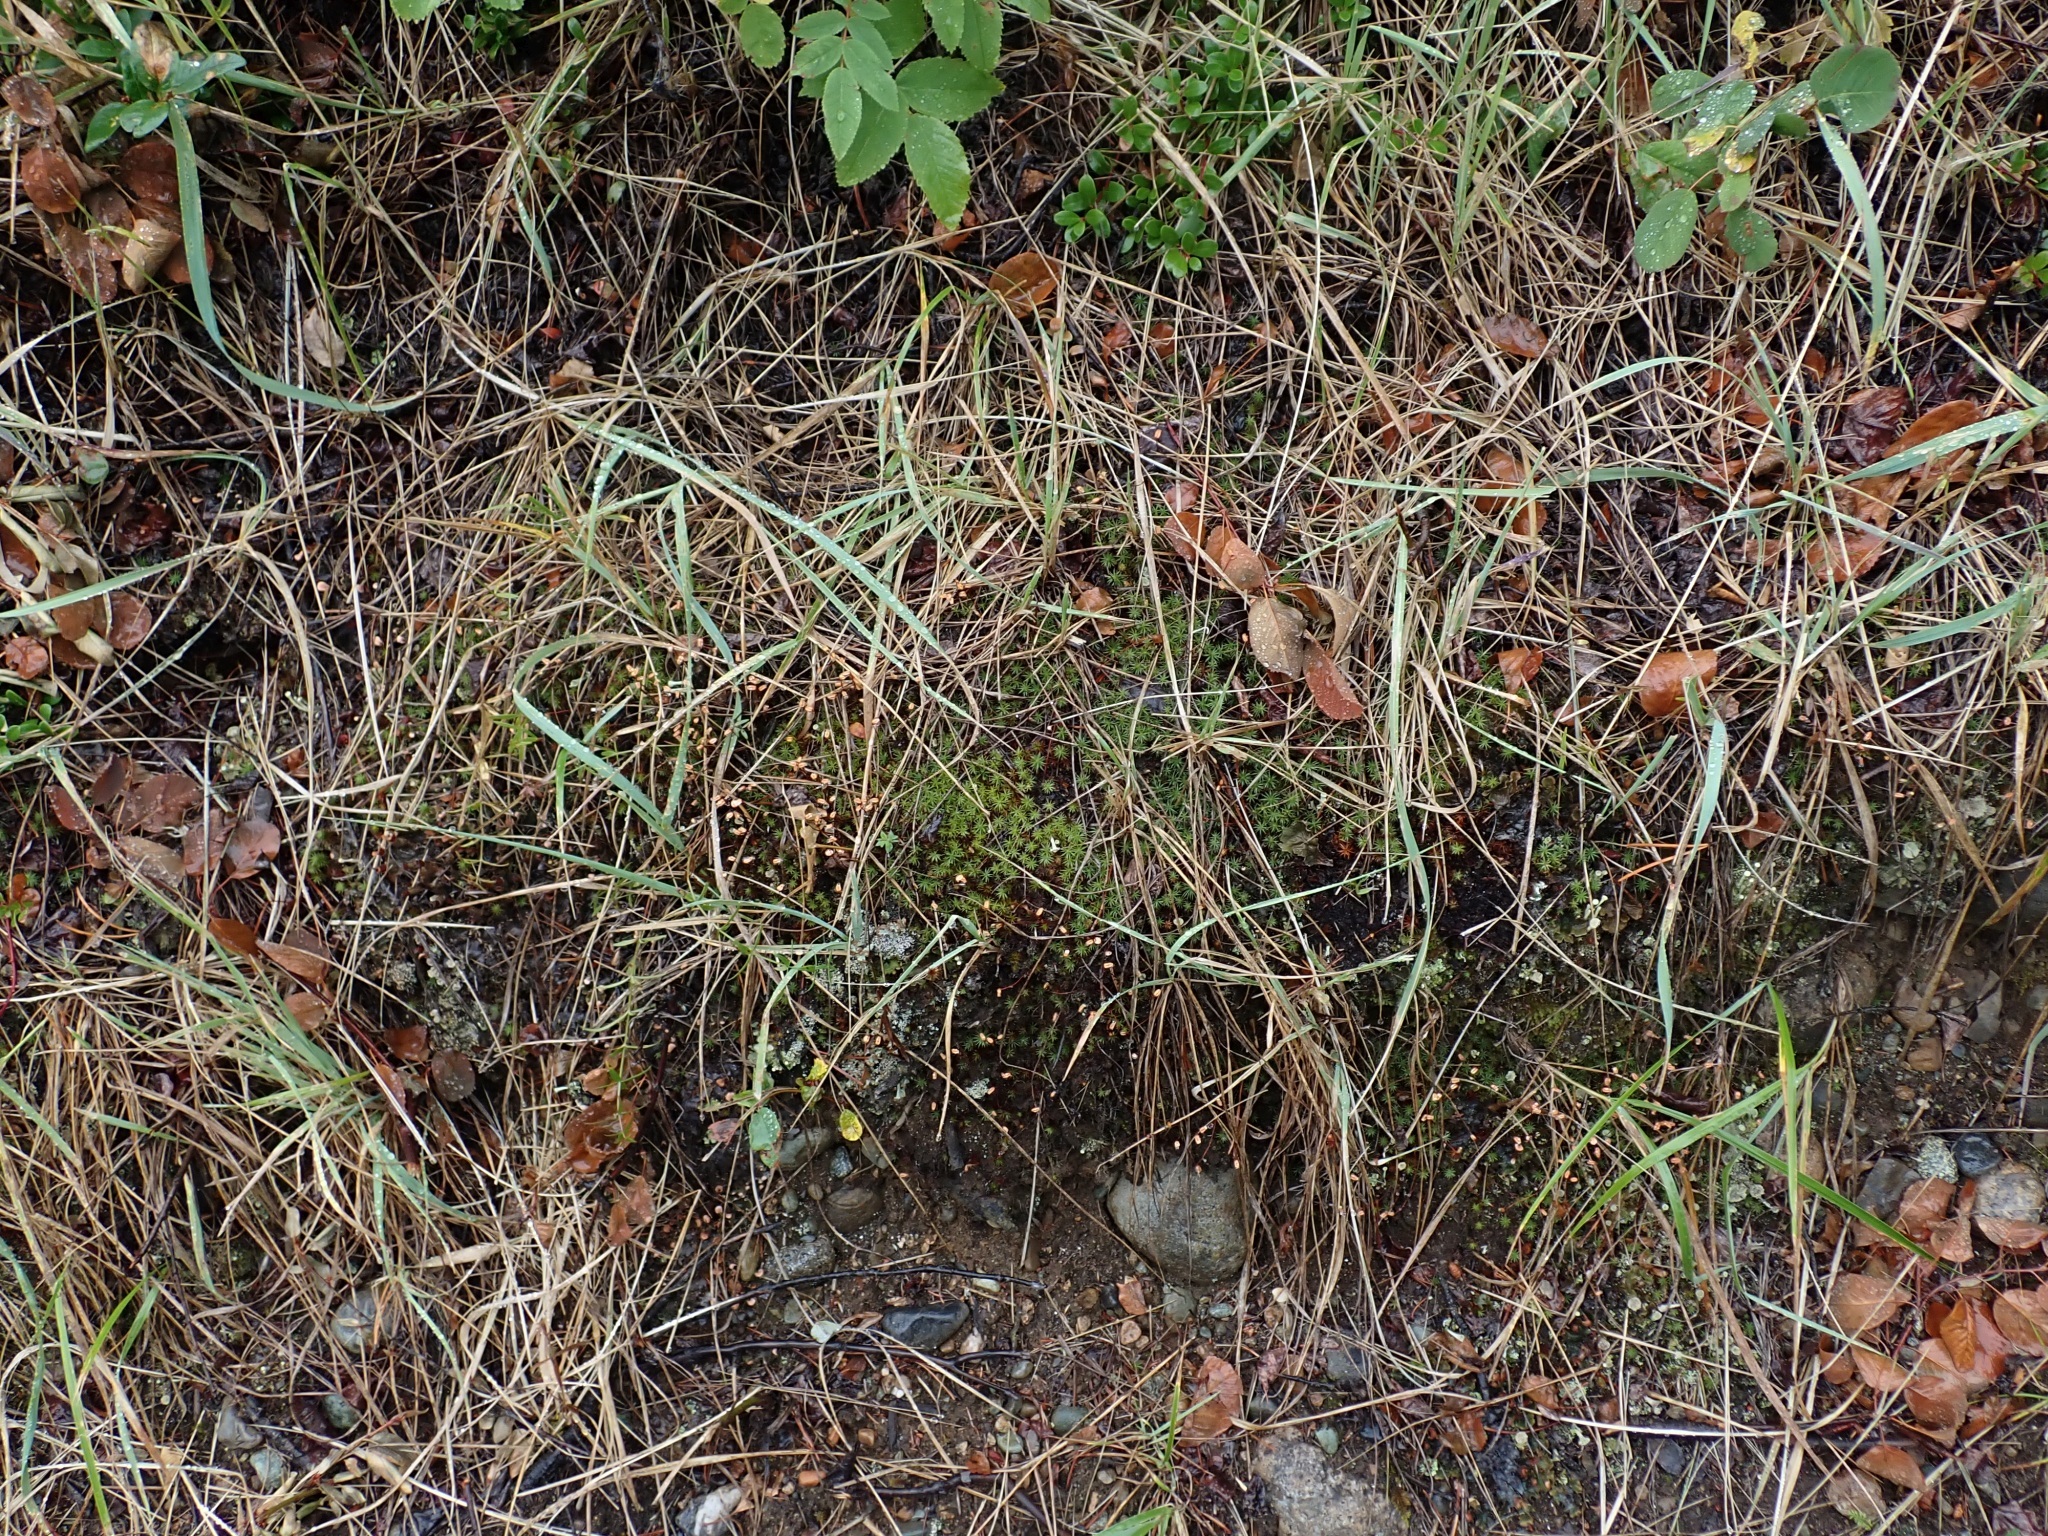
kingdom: Plantae
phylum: Bryophyta
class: Polytrichopsida
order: Polytrichales
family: Polytrichaceae
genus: Polytrichum
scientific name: Polytrichum juniperinum
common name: Juniper haircap moss
